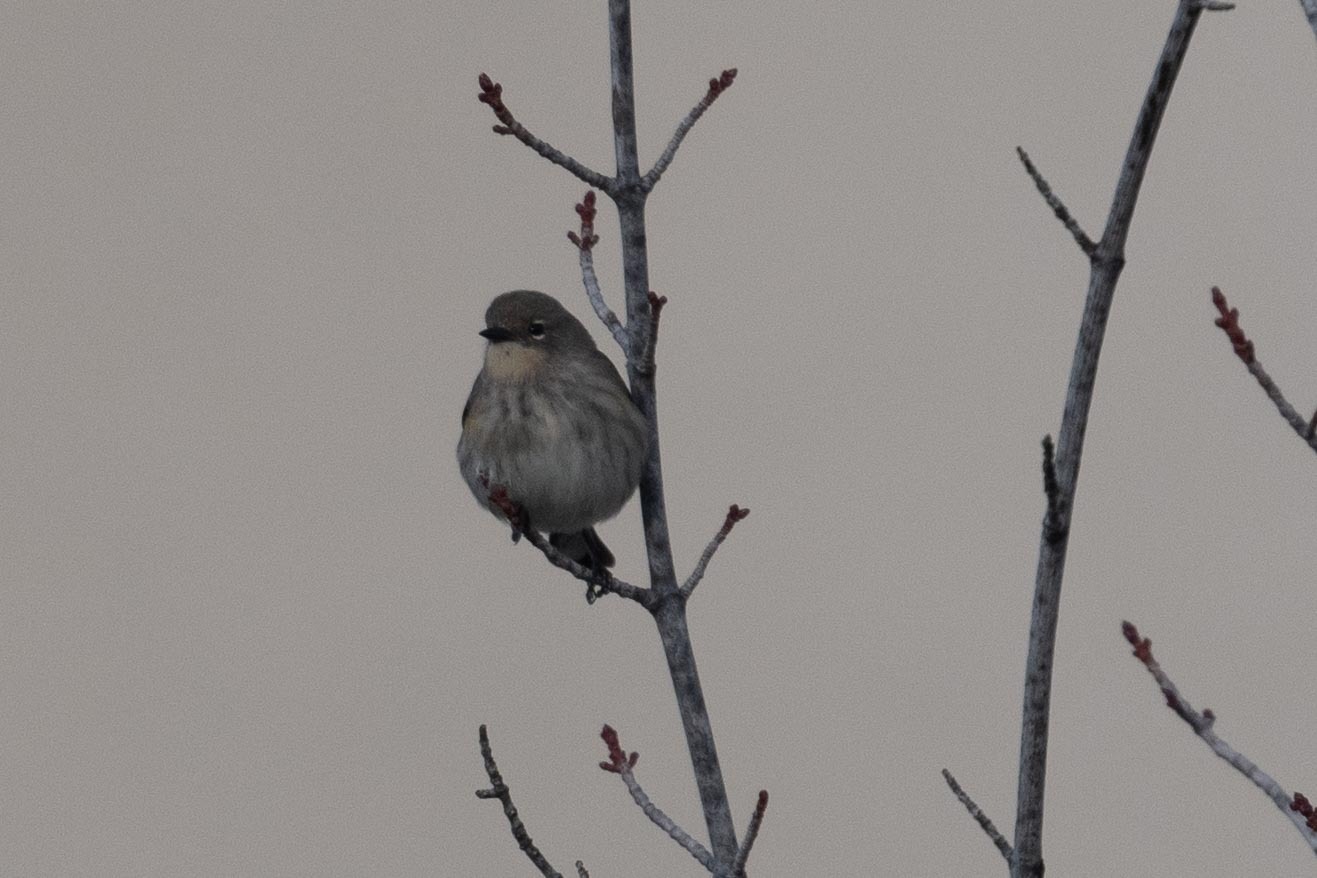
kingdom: Animalia
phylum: Chordata
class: Aves
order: Passeriformes
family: Parulidae
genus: Setophaga
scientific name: Setophaga coronata
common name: Myrtle warbler
